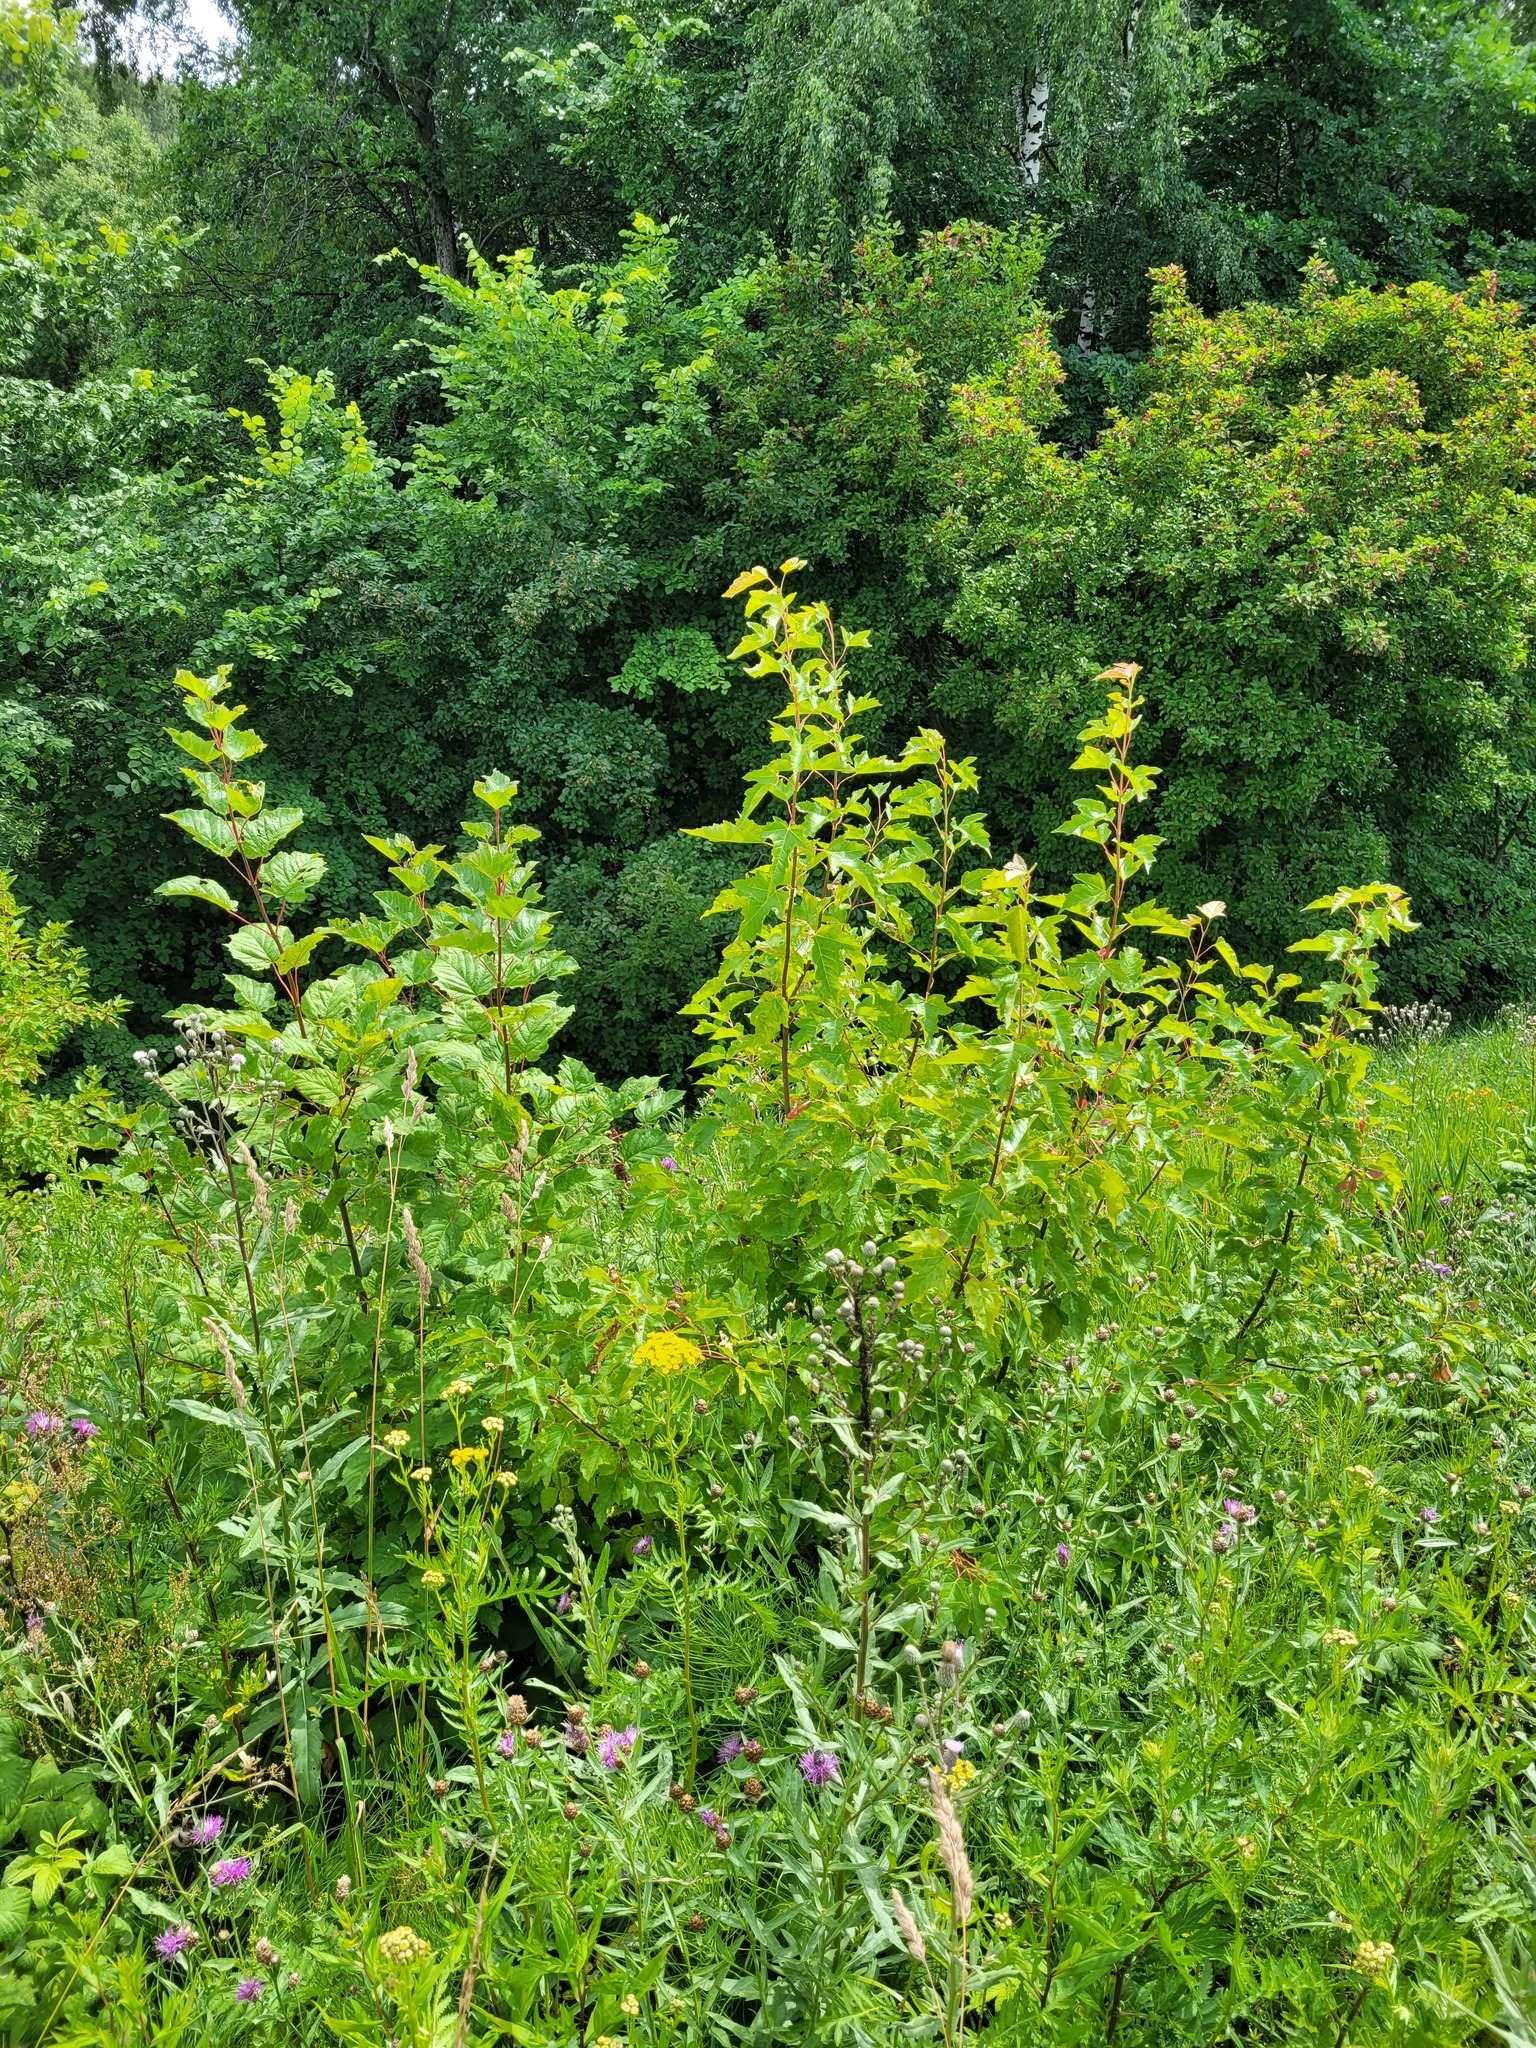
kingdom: Plantae
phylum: Tracheophyta
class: Magnoliopsida
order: Sapindales
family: Sapindaceae
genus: Acer
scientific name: Acer tataricum
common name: Tartar maple
